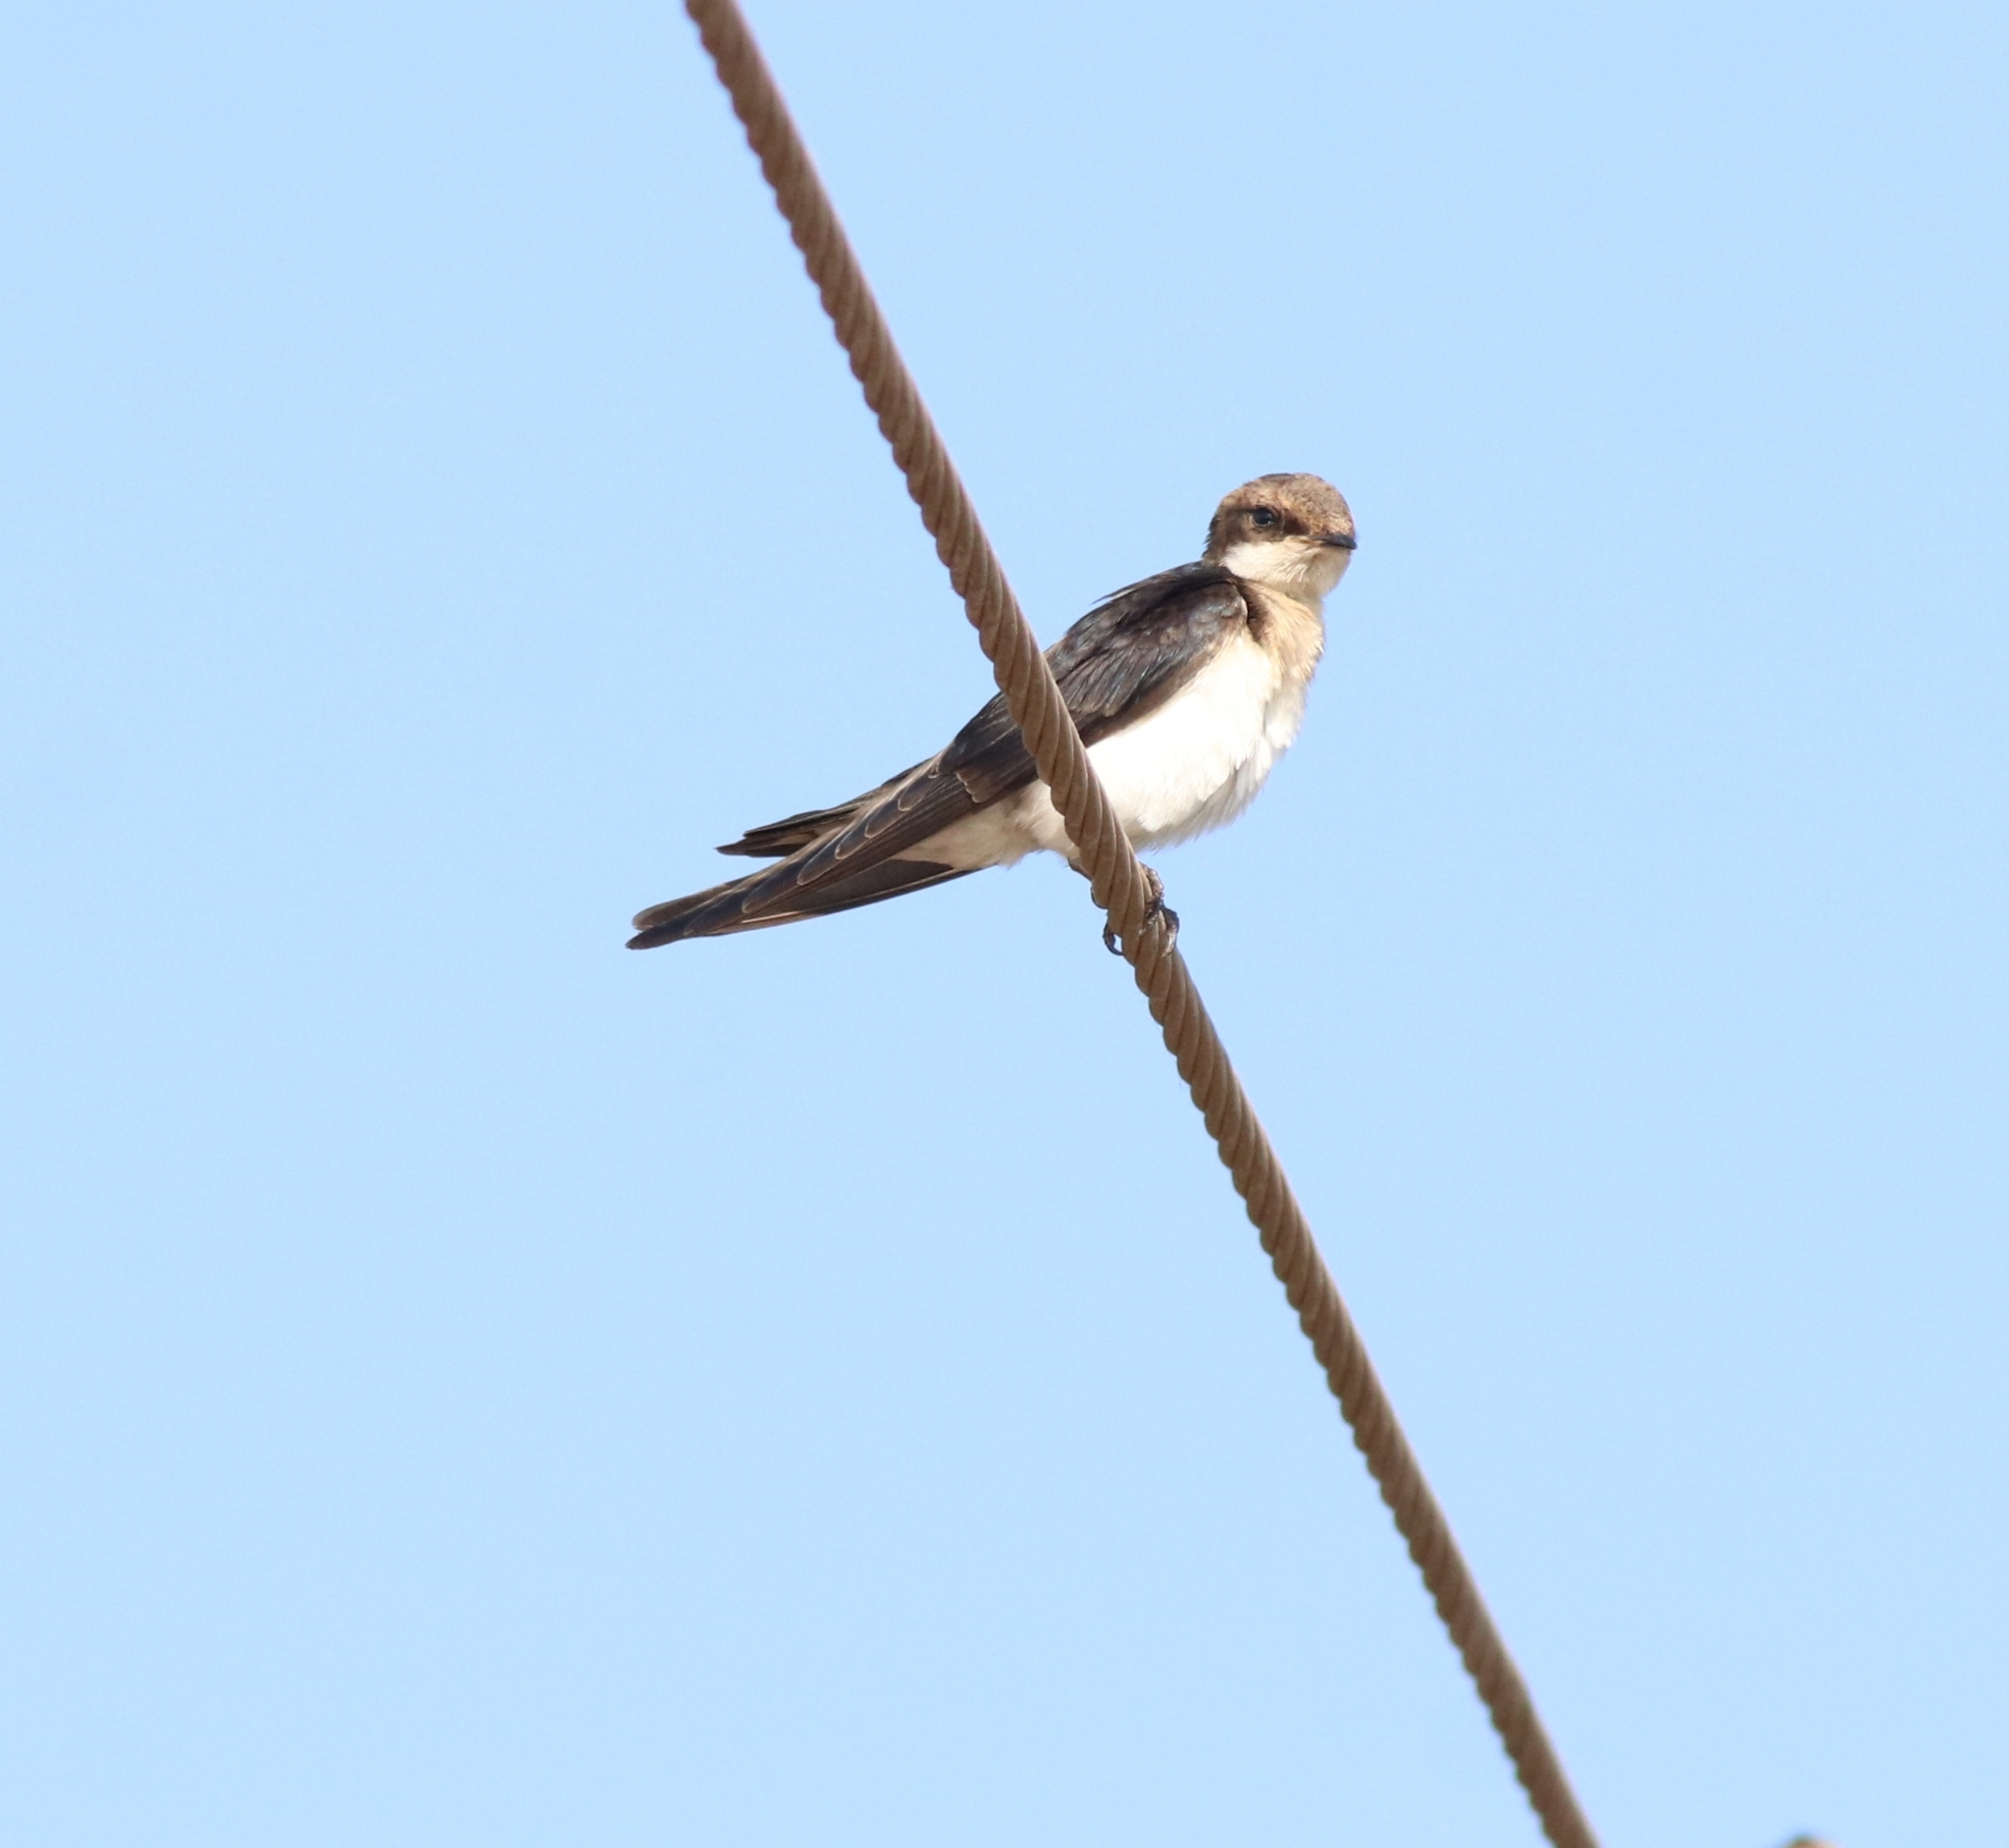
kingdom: Animalia
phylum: Chordata
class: Aves
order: Passeriformes
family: Hirundinidae
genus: Hirundo
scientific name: Hirundo smithii
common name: Wire-tailed swallow
